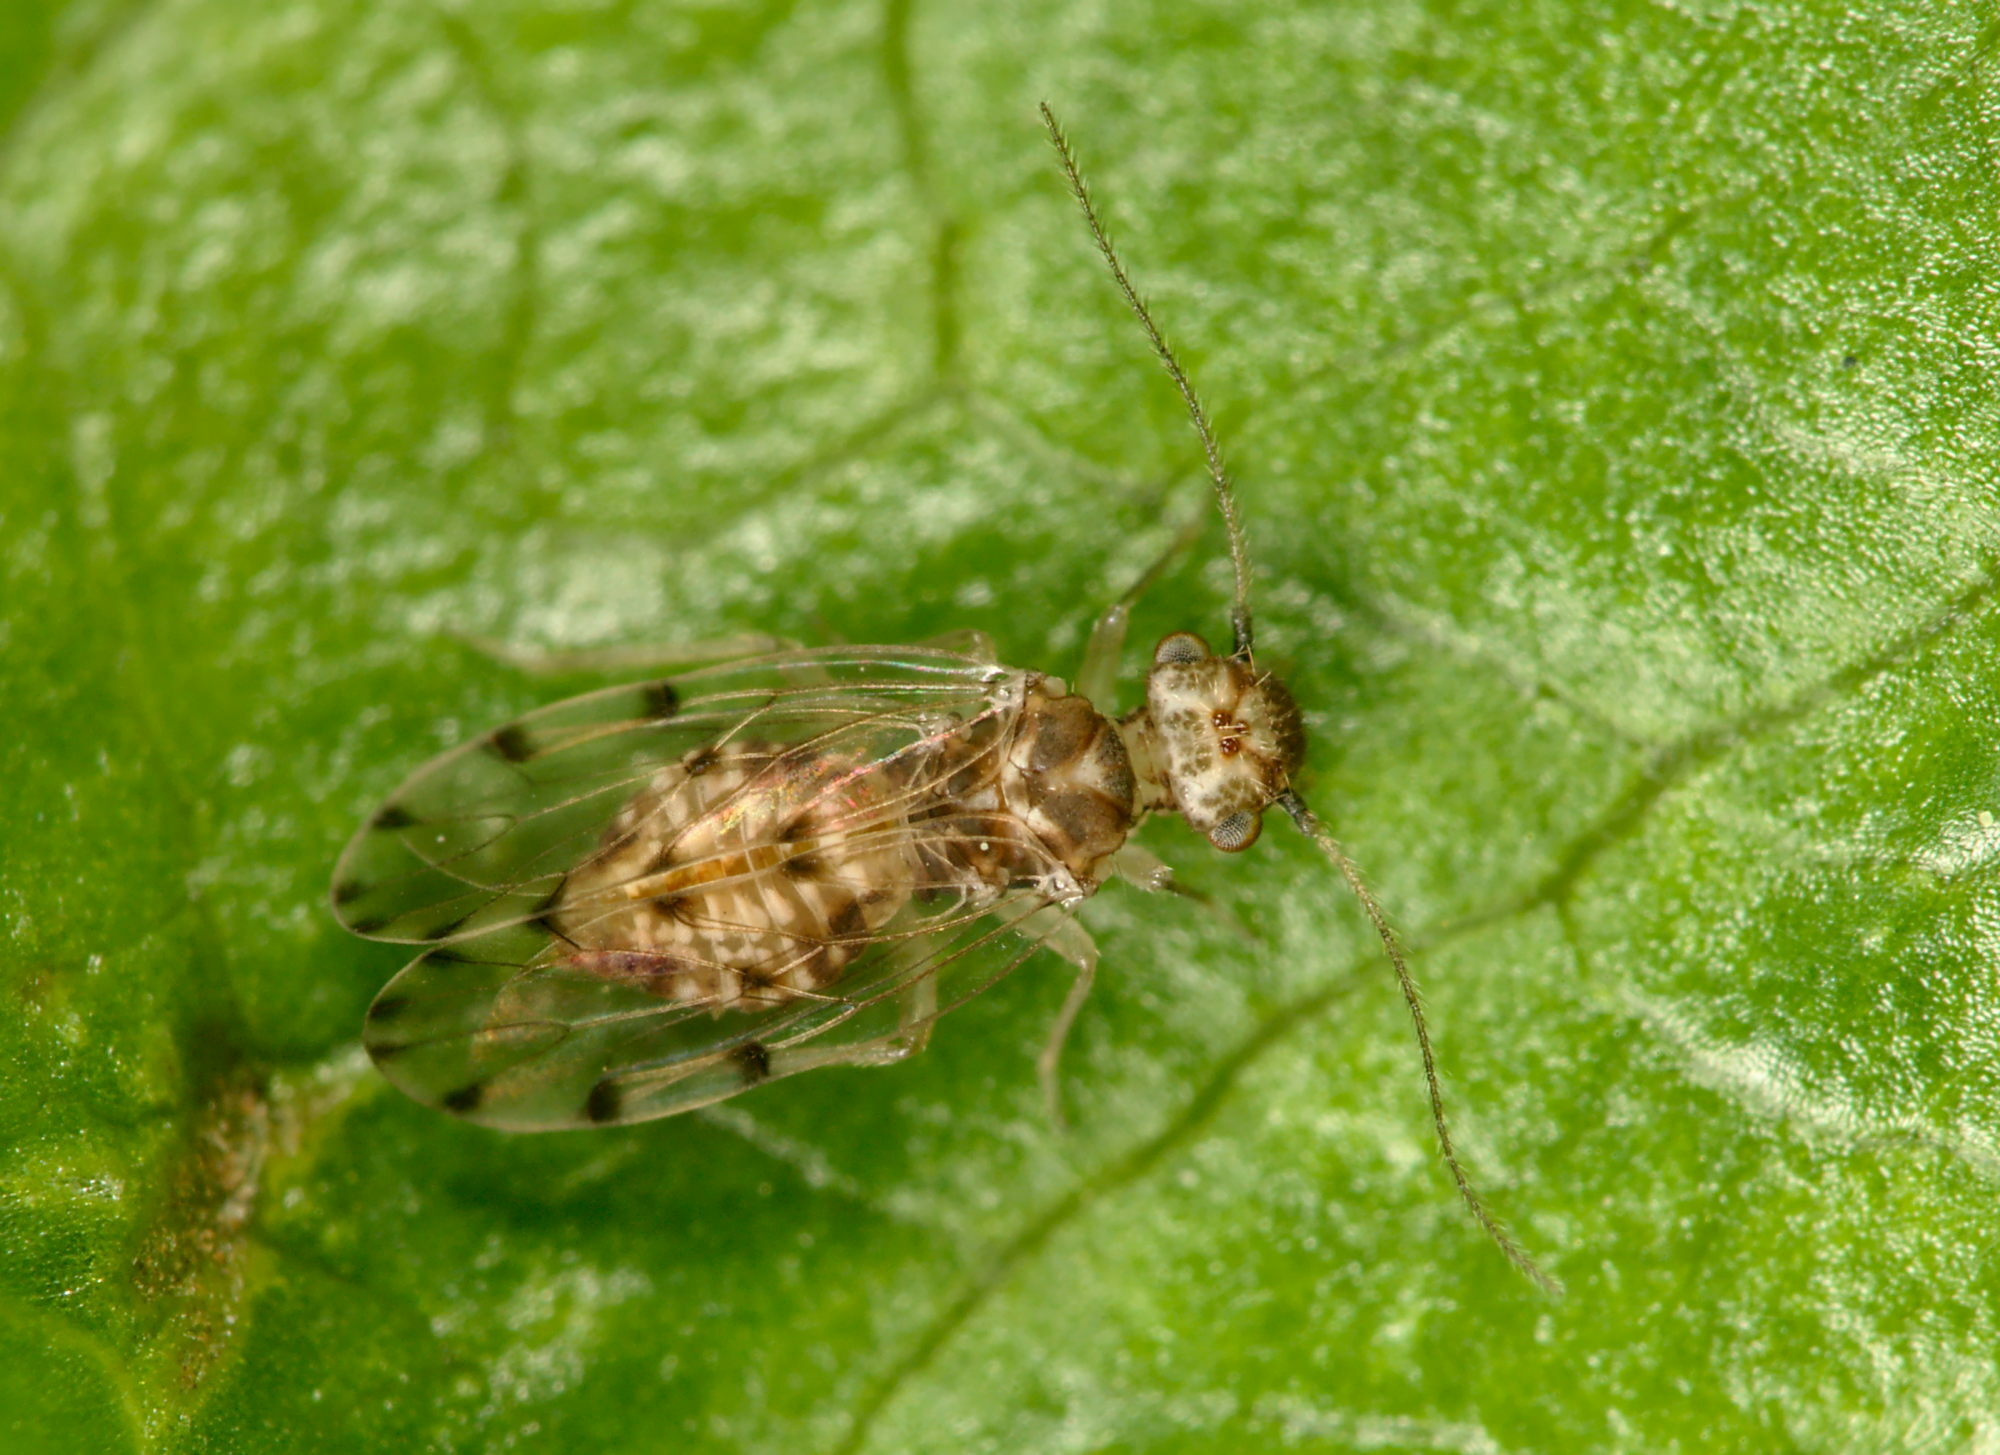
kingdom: Animalia
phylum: Arthropoda
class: Insecta
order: Psocodea
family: Ectopsocidae
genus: Ectopsocus
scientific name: Ectopsocus petersi
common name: Medium-sized bark louse
